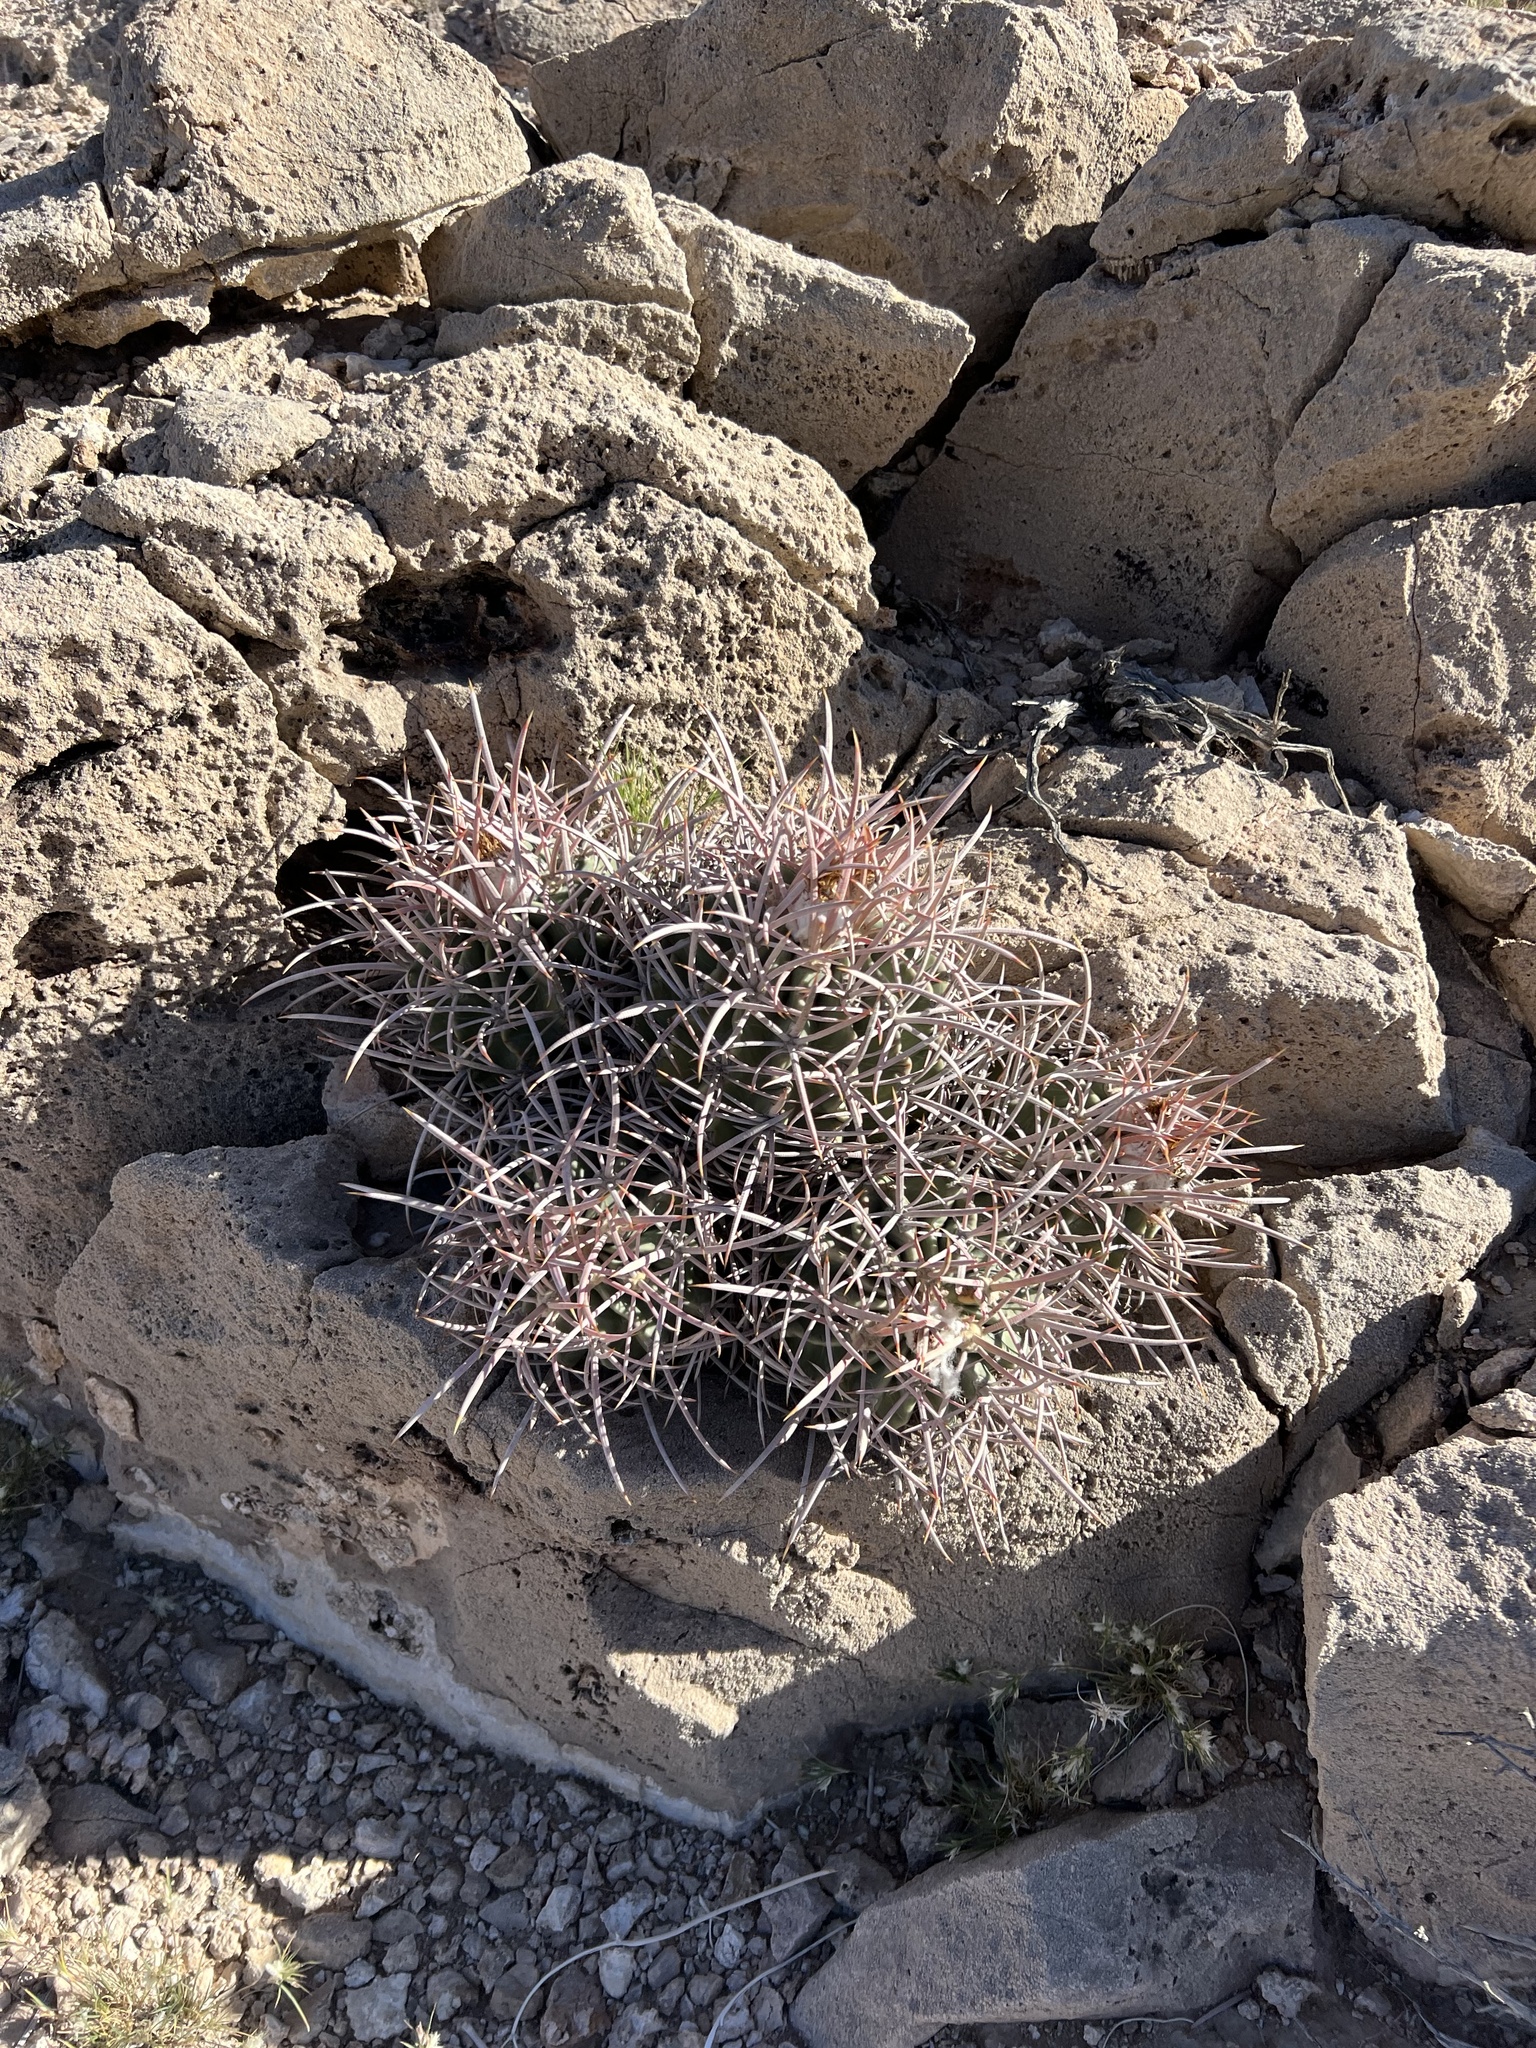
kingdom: Plantae
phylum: Tracheophyta
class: Magnoliopsida
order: Caryophyllales
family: Cactaceae
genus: Echinocactus
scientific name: Echinocactus polycephalus
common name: Cottontop cactus
